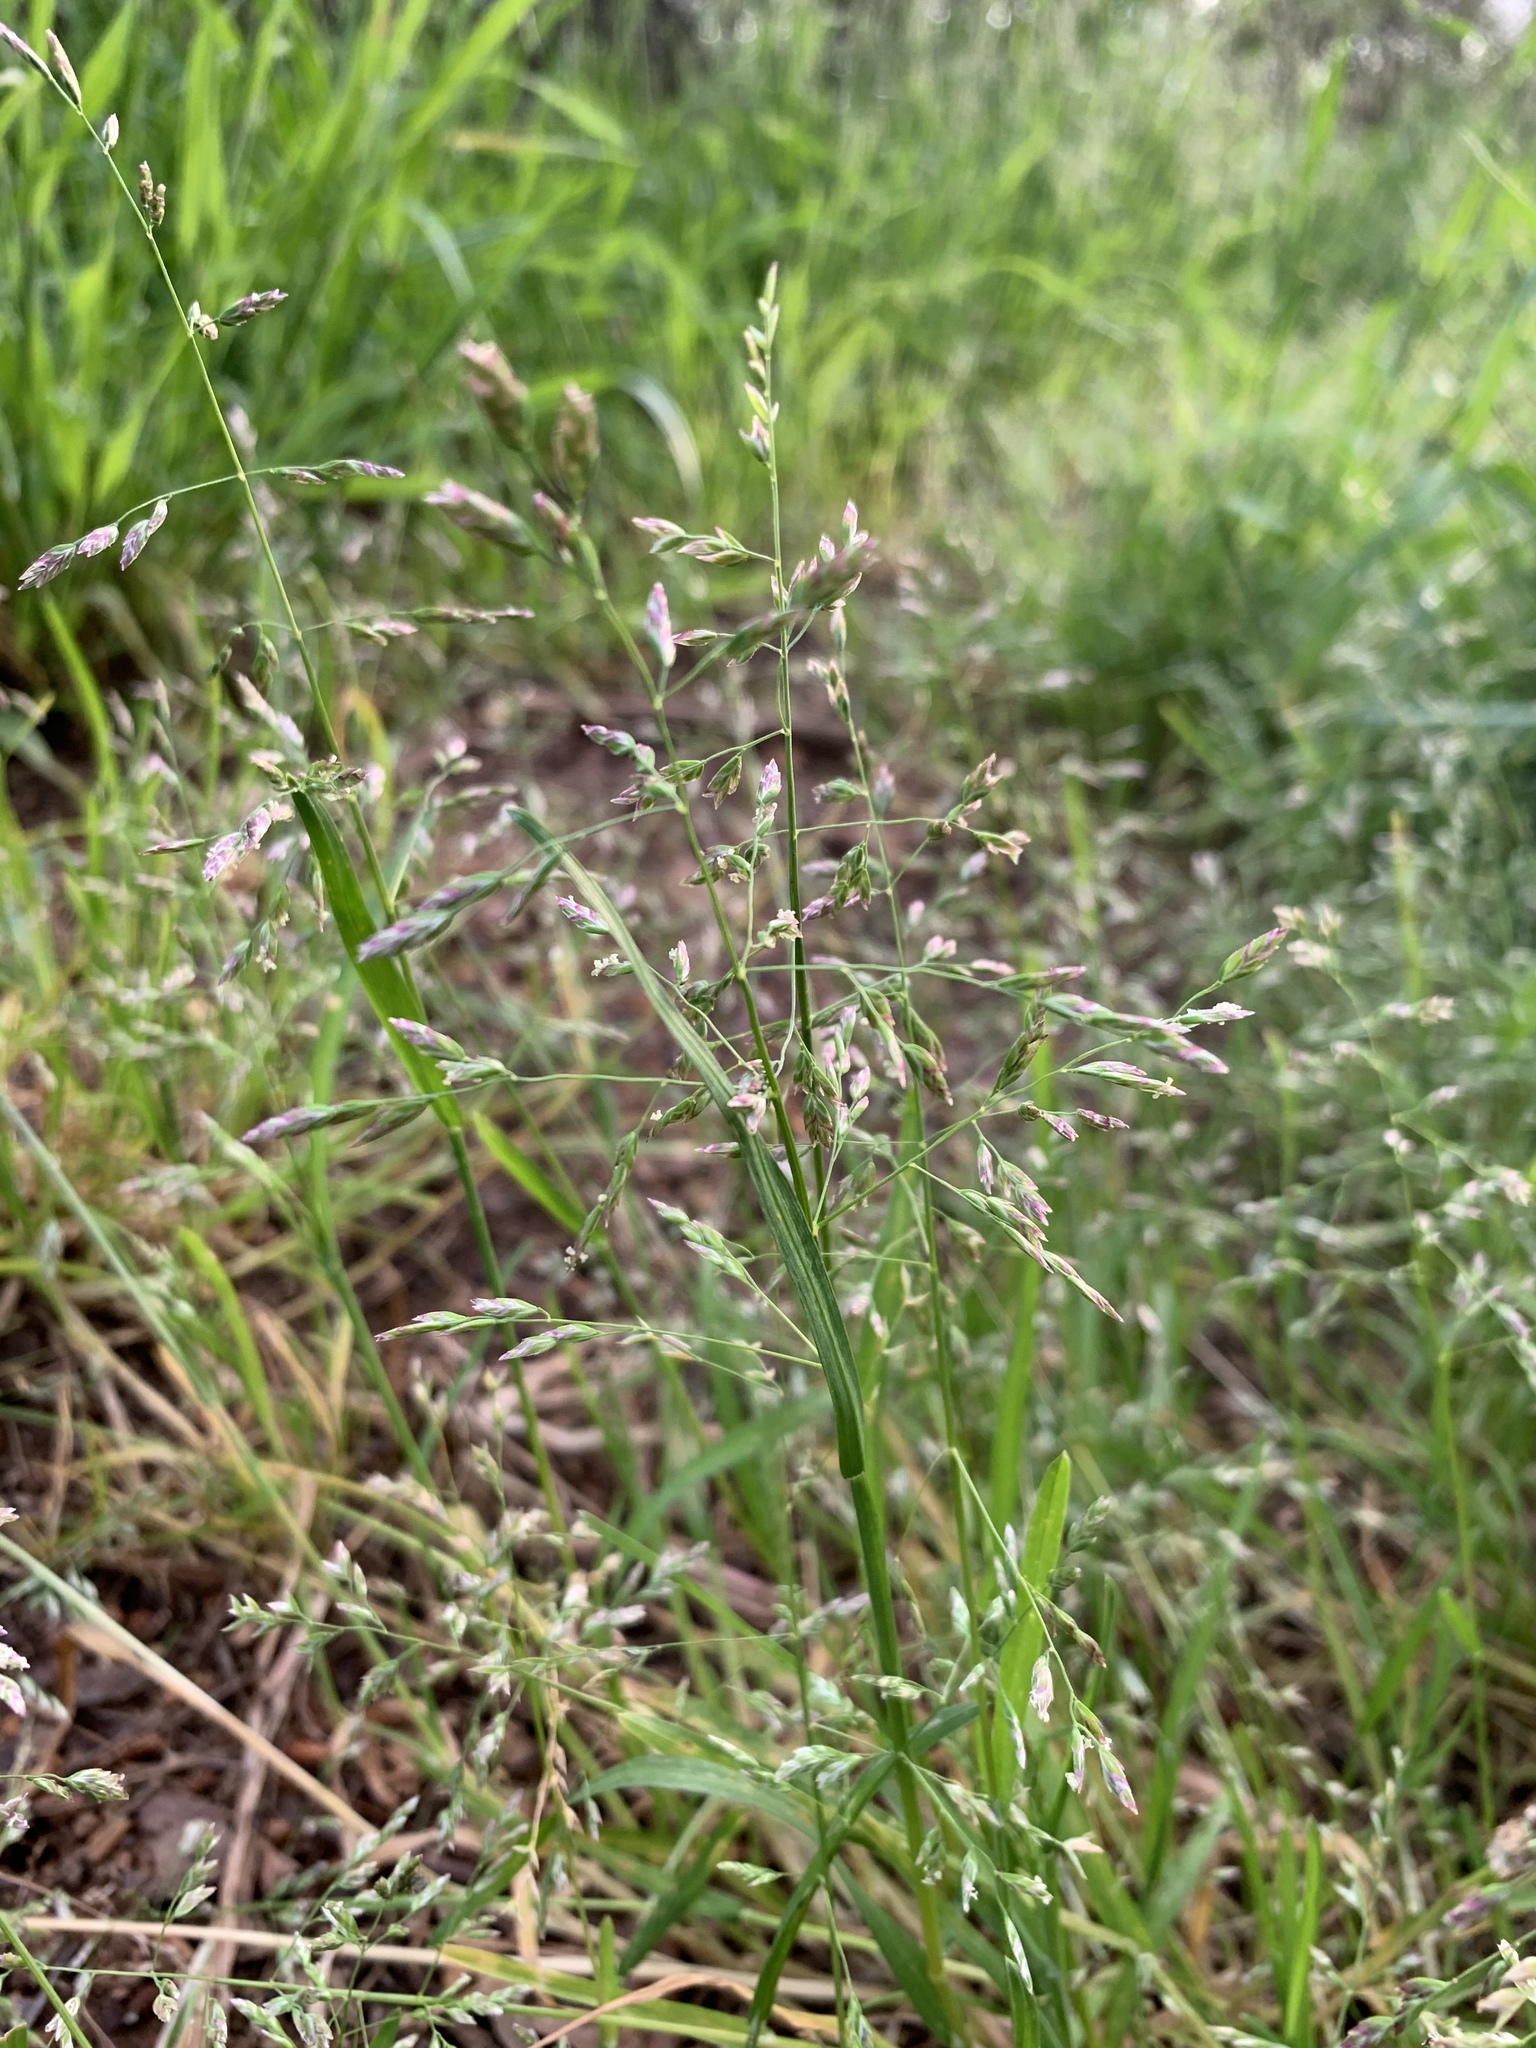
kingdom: Plantae
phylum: Tracheophyta
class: Liliopsida
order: Poales
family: Poaceae
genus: Poa
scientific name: Poa annua
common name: Annual bluegrass
